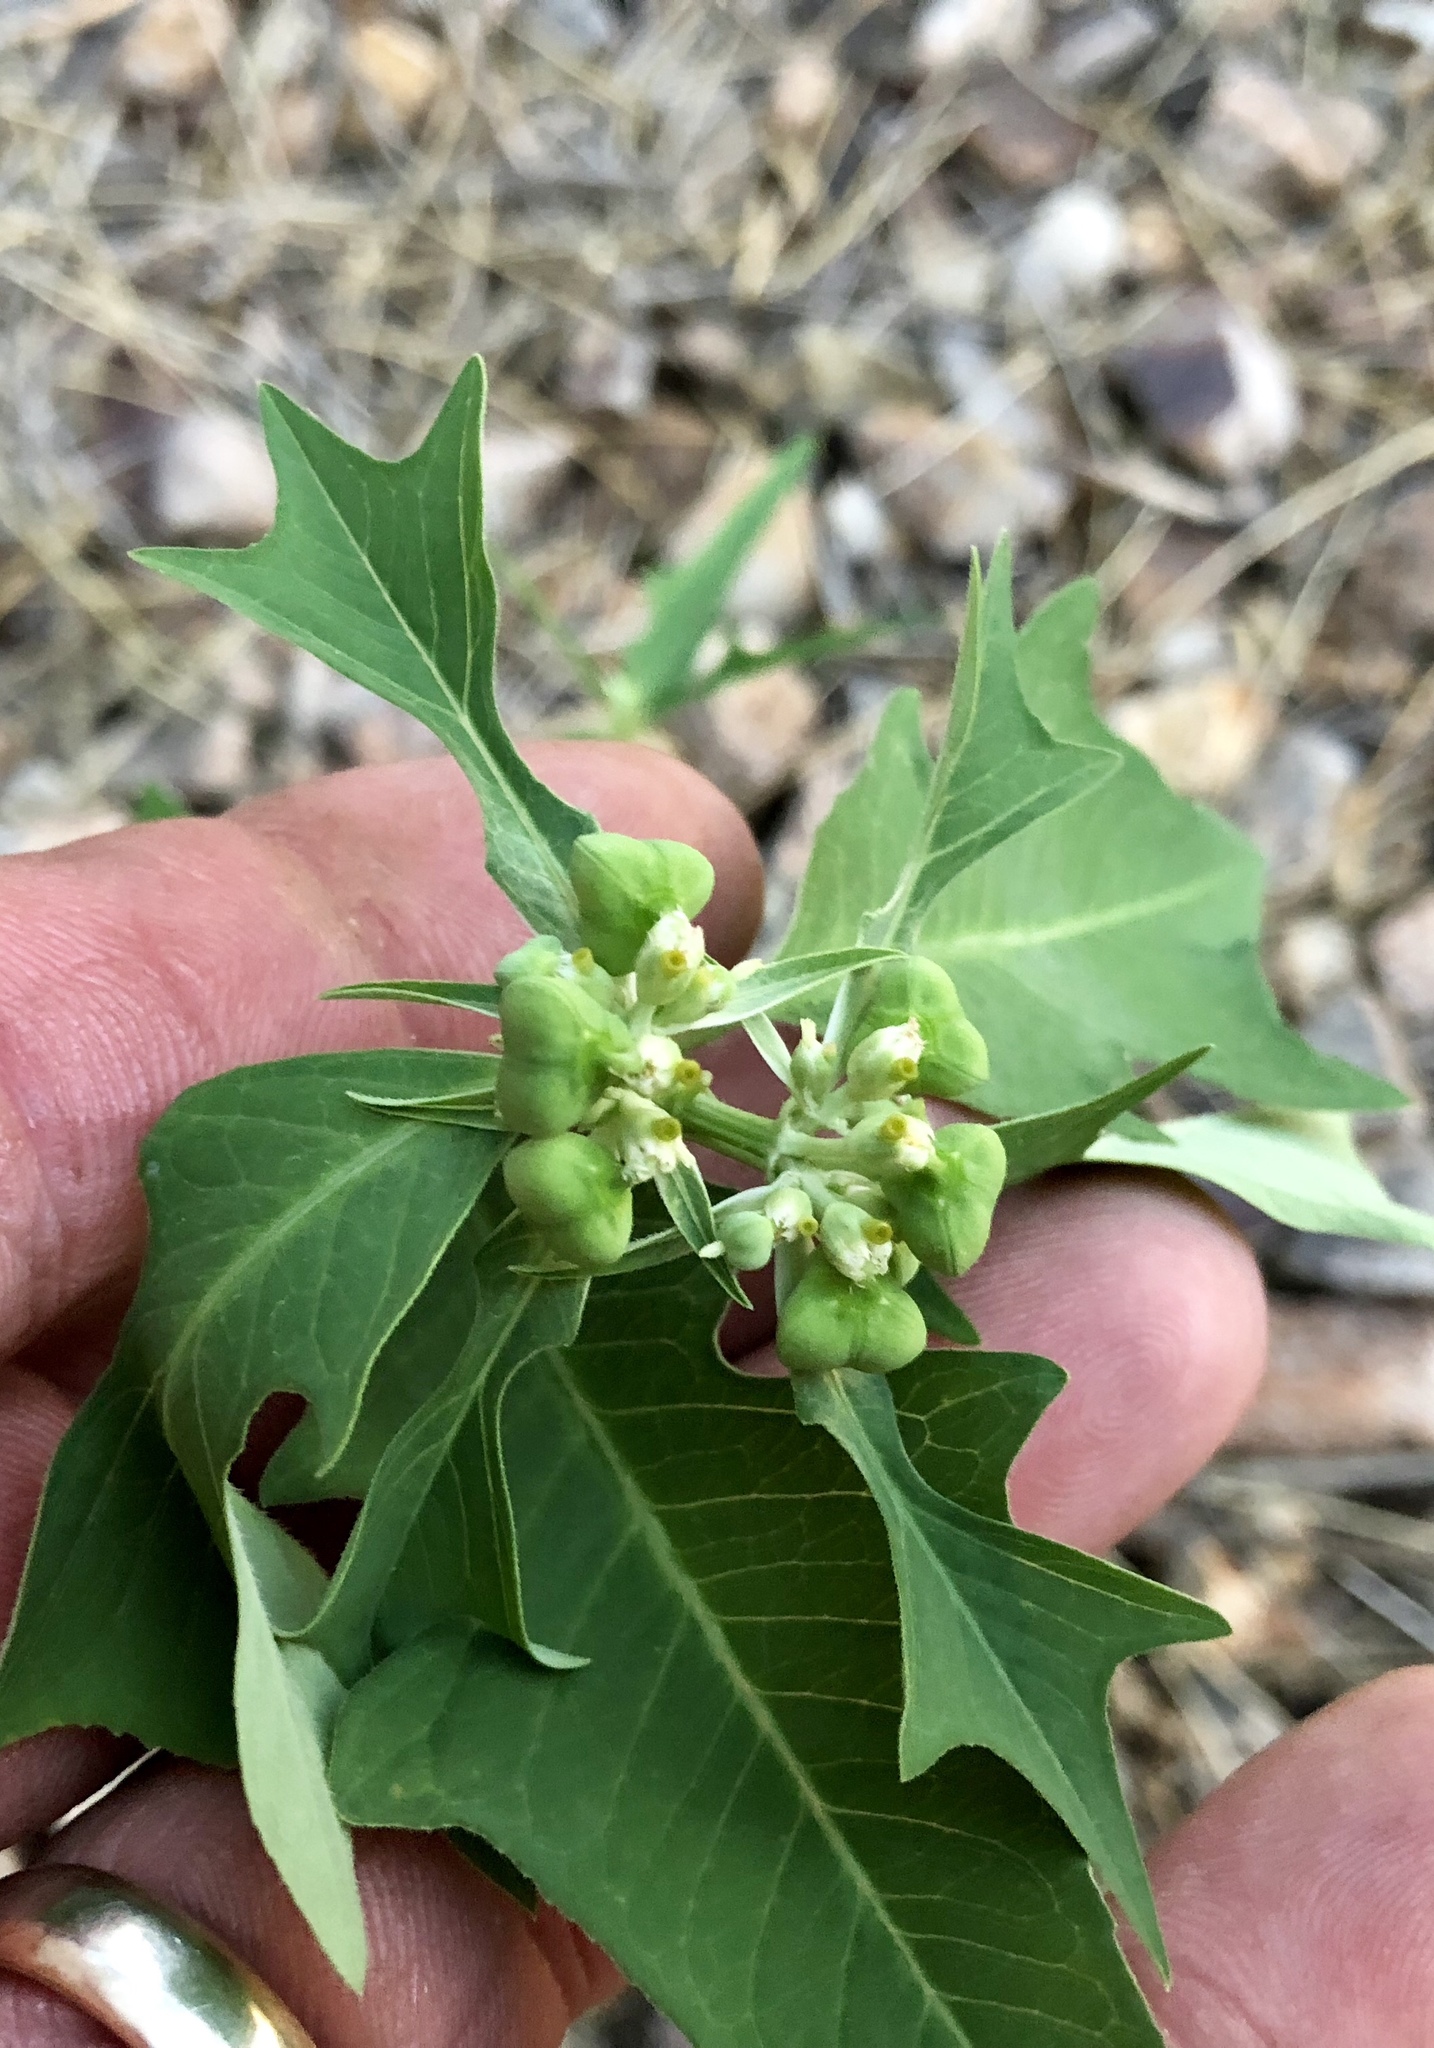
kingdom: Plantae
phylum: Tracheophyta
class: Magnoliopsida
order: Malpighiales
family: Euphorbiaceae
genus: Euphorbia
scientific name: Euphorbia heterophylla
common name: Mexican fireplant
